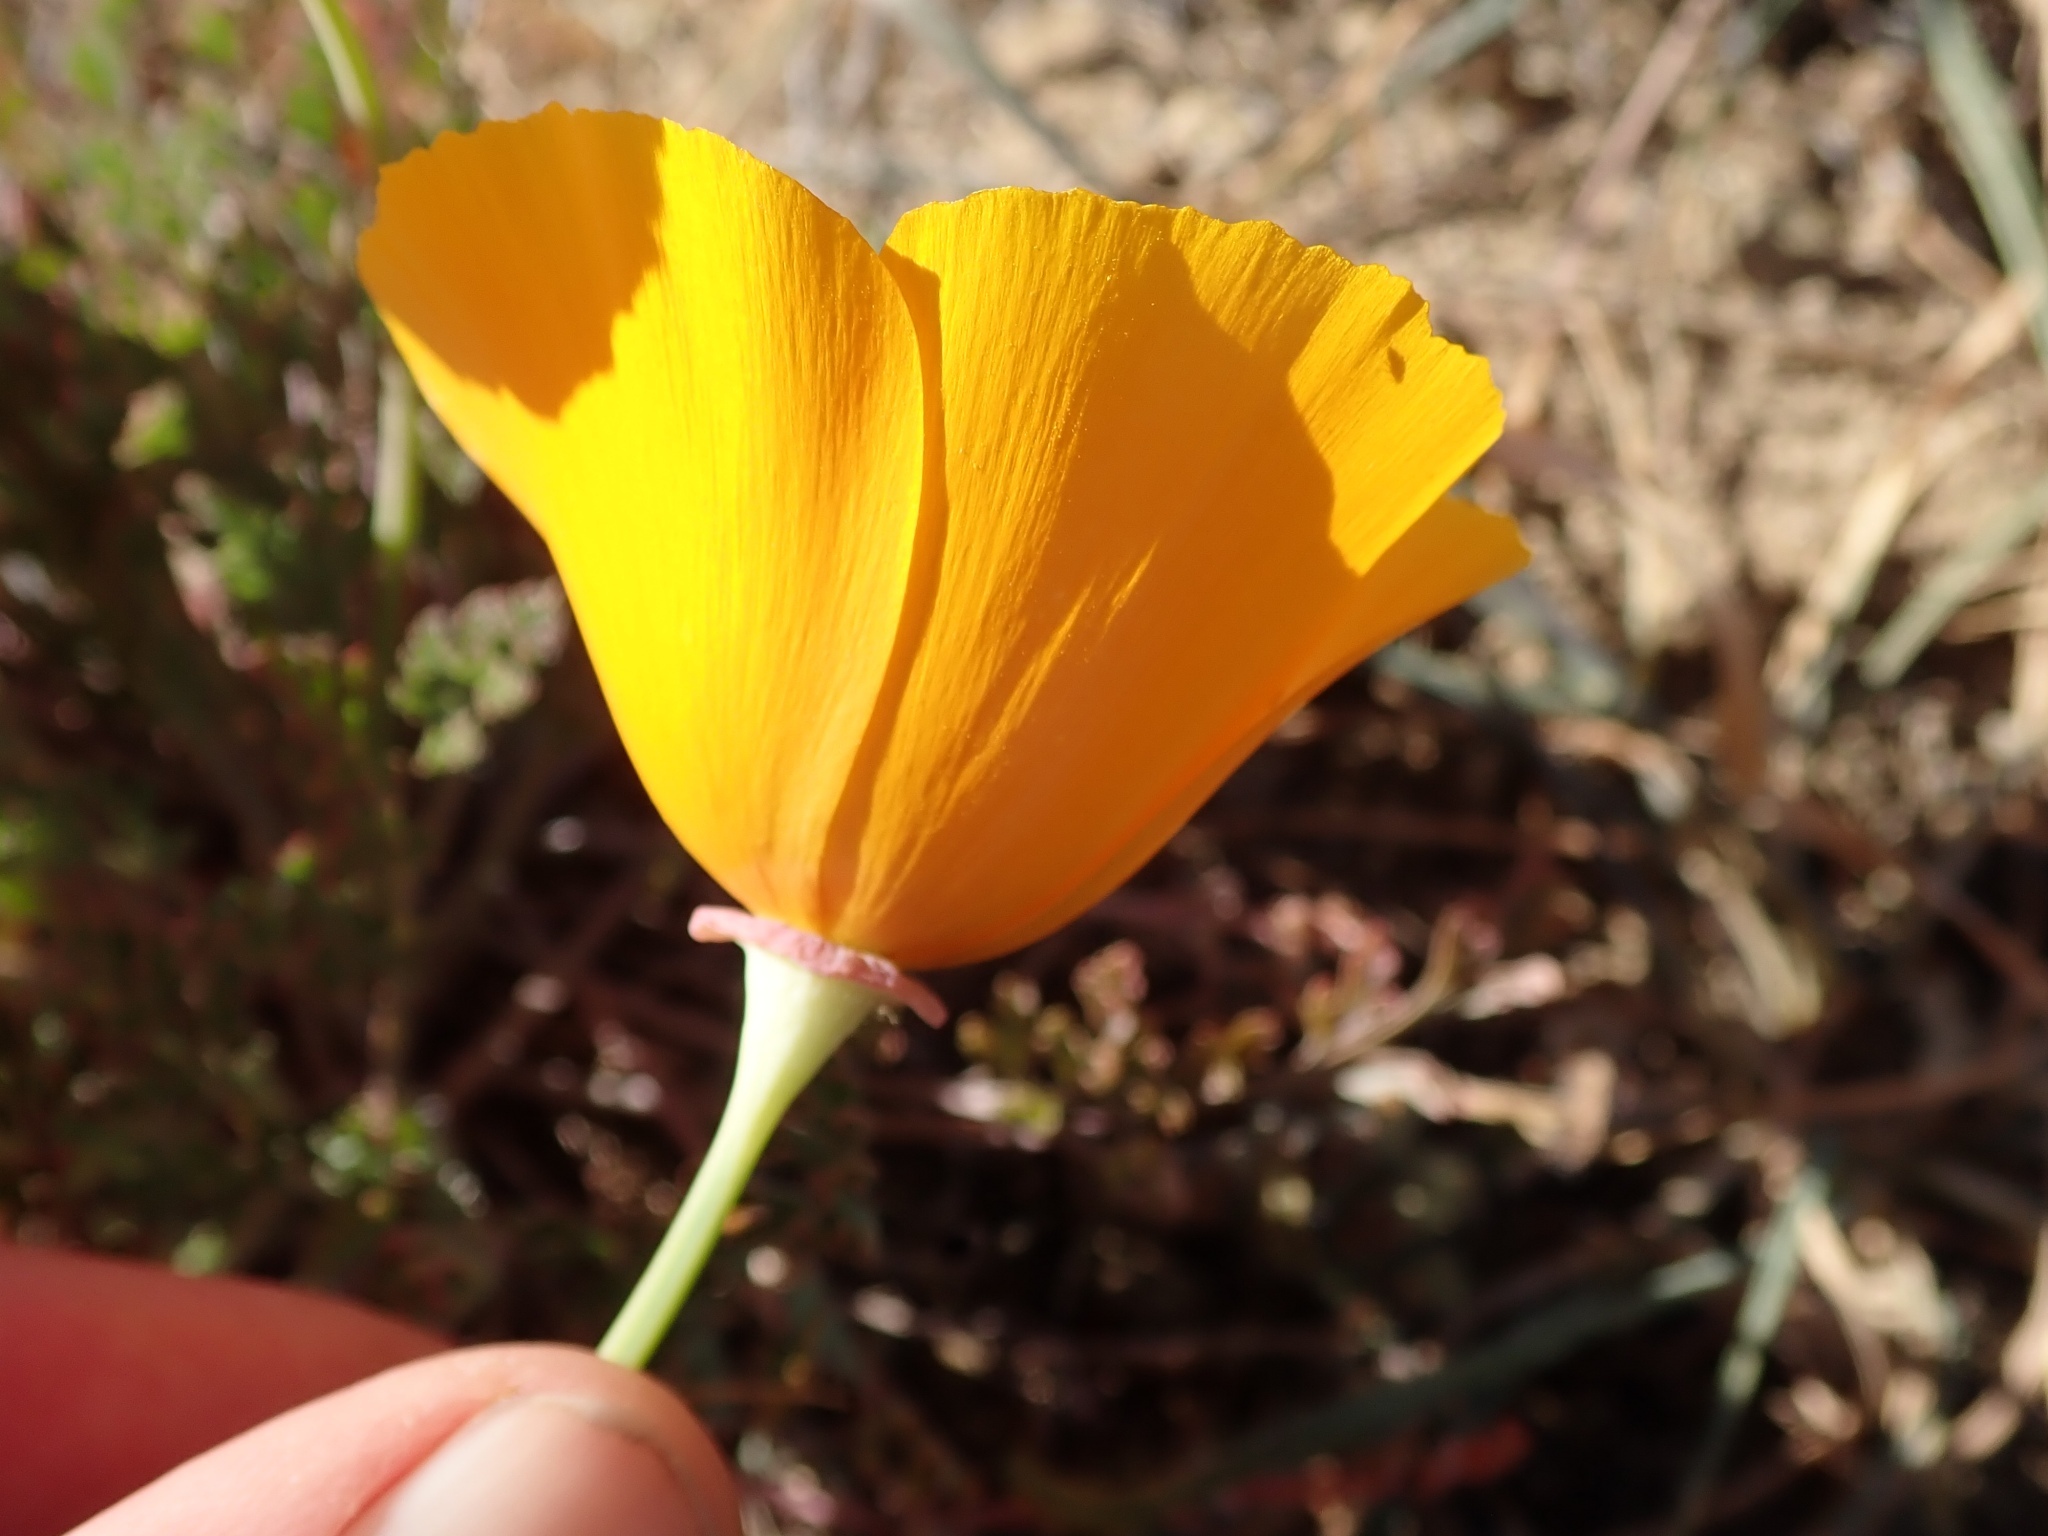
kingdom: Plantae
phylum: Tracheophyta
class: Magnoliopsida
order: Ranunculales
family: Papaveraceae
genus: Eschscholzia
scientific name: Eschscholzia californica
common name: California poppy
